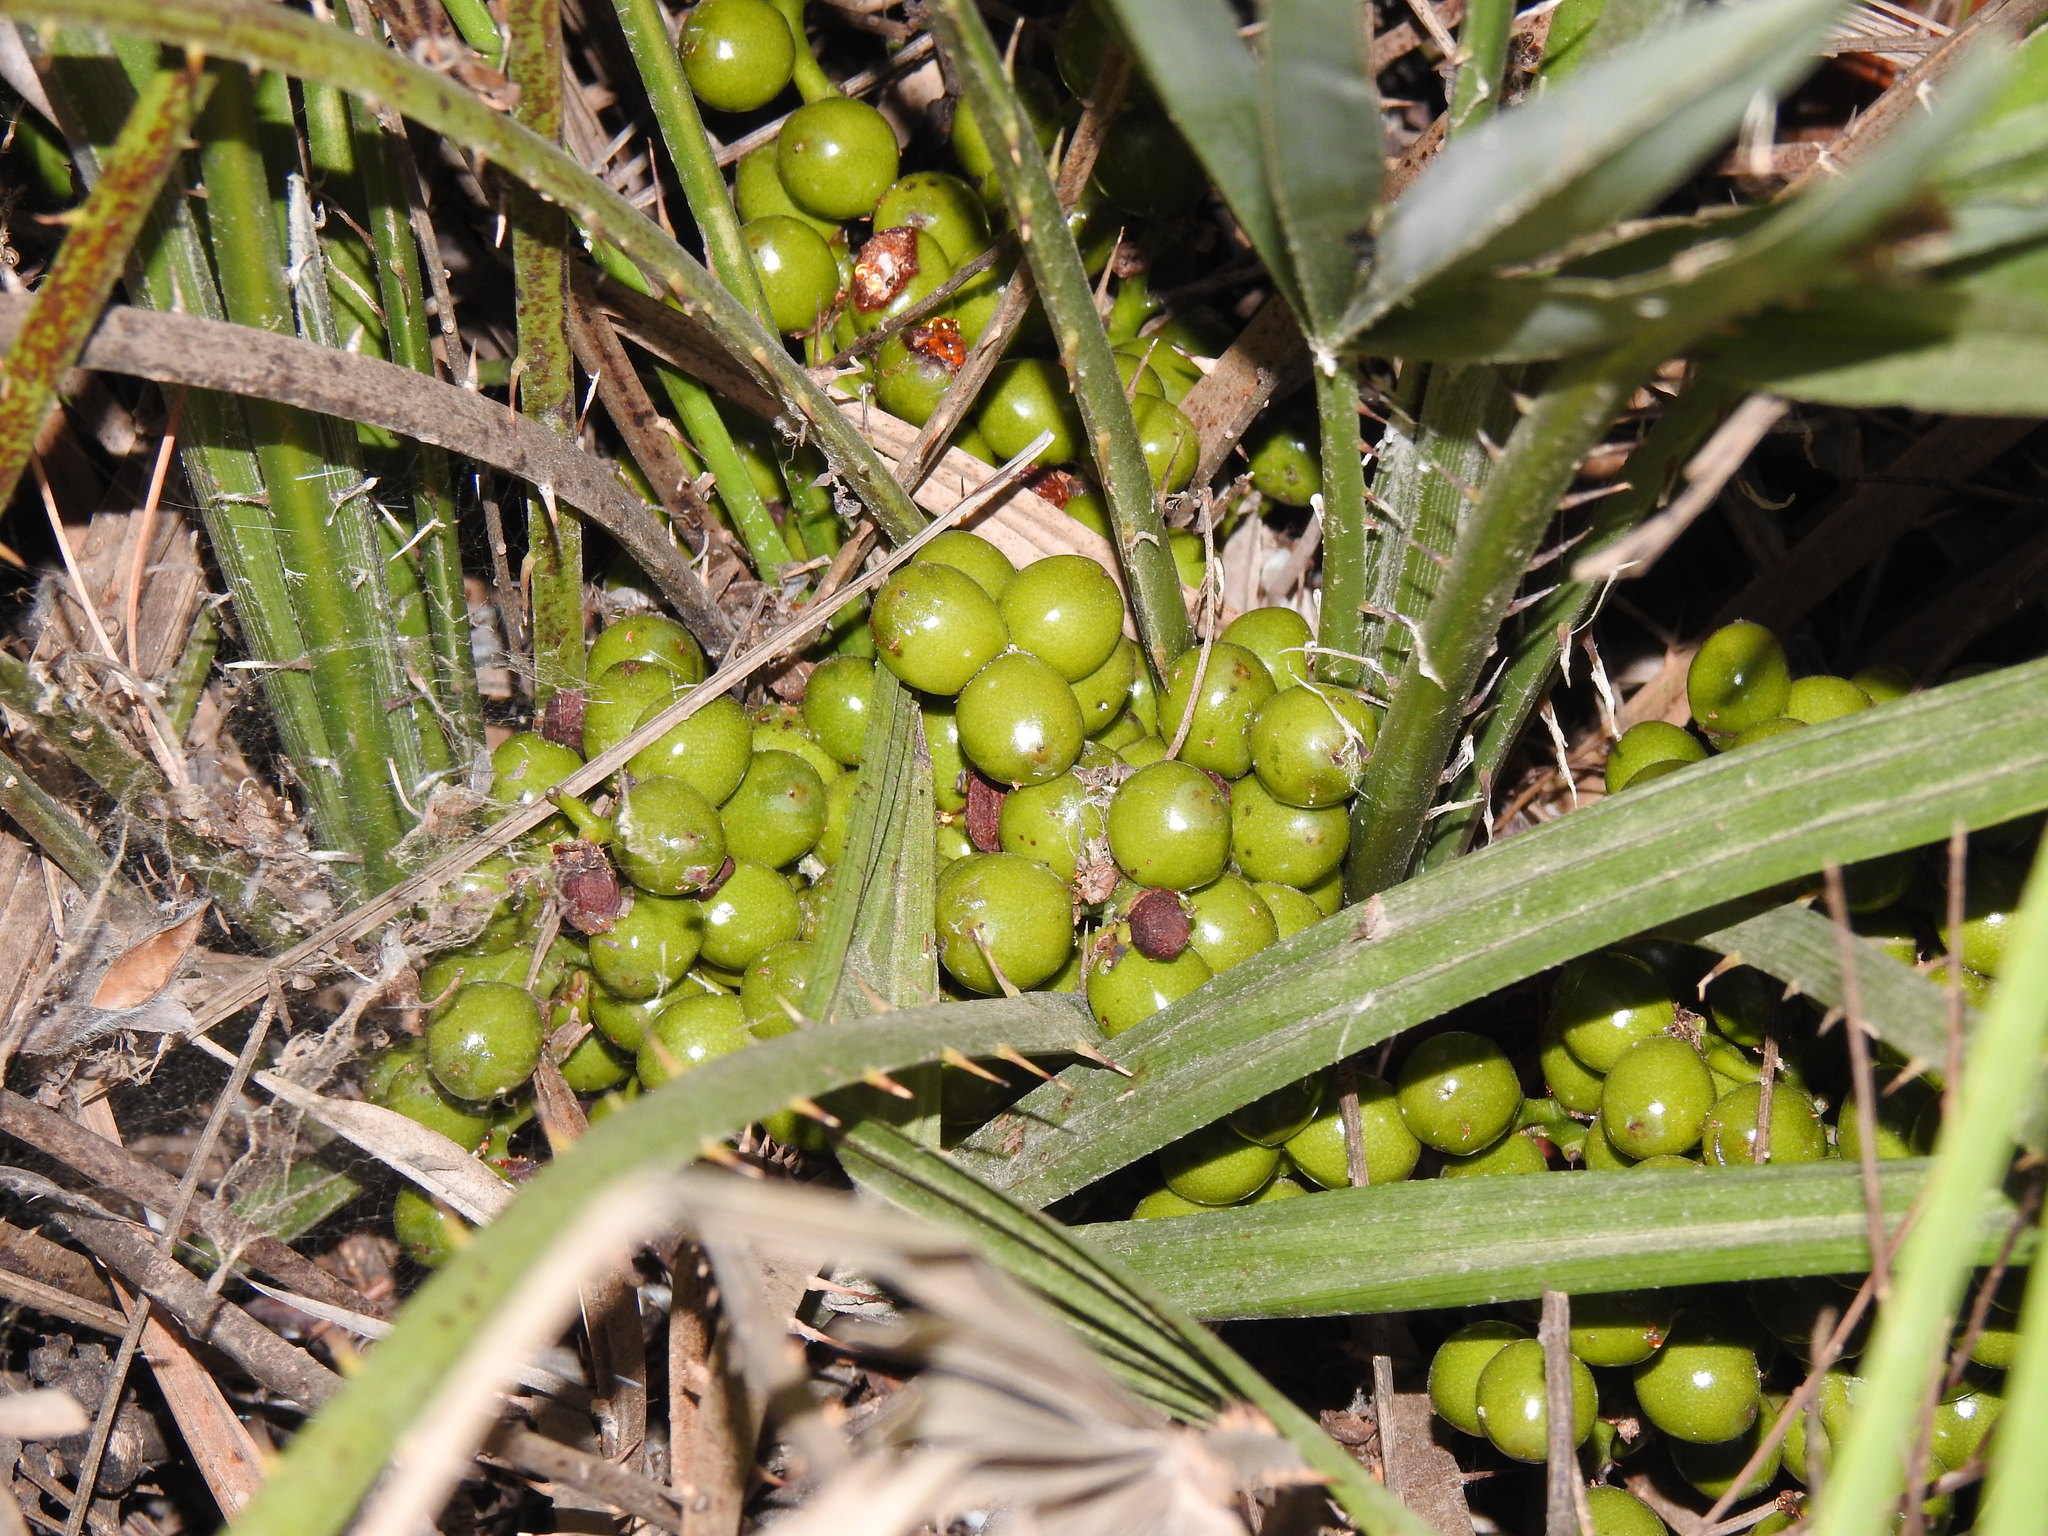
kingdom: Plantae
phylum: Tracheophyta
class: Liliopsida
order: Arecales
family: Arecaceae
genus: Chamaerops
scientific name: Chamaerops humilis
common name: Dwarf fan palm
